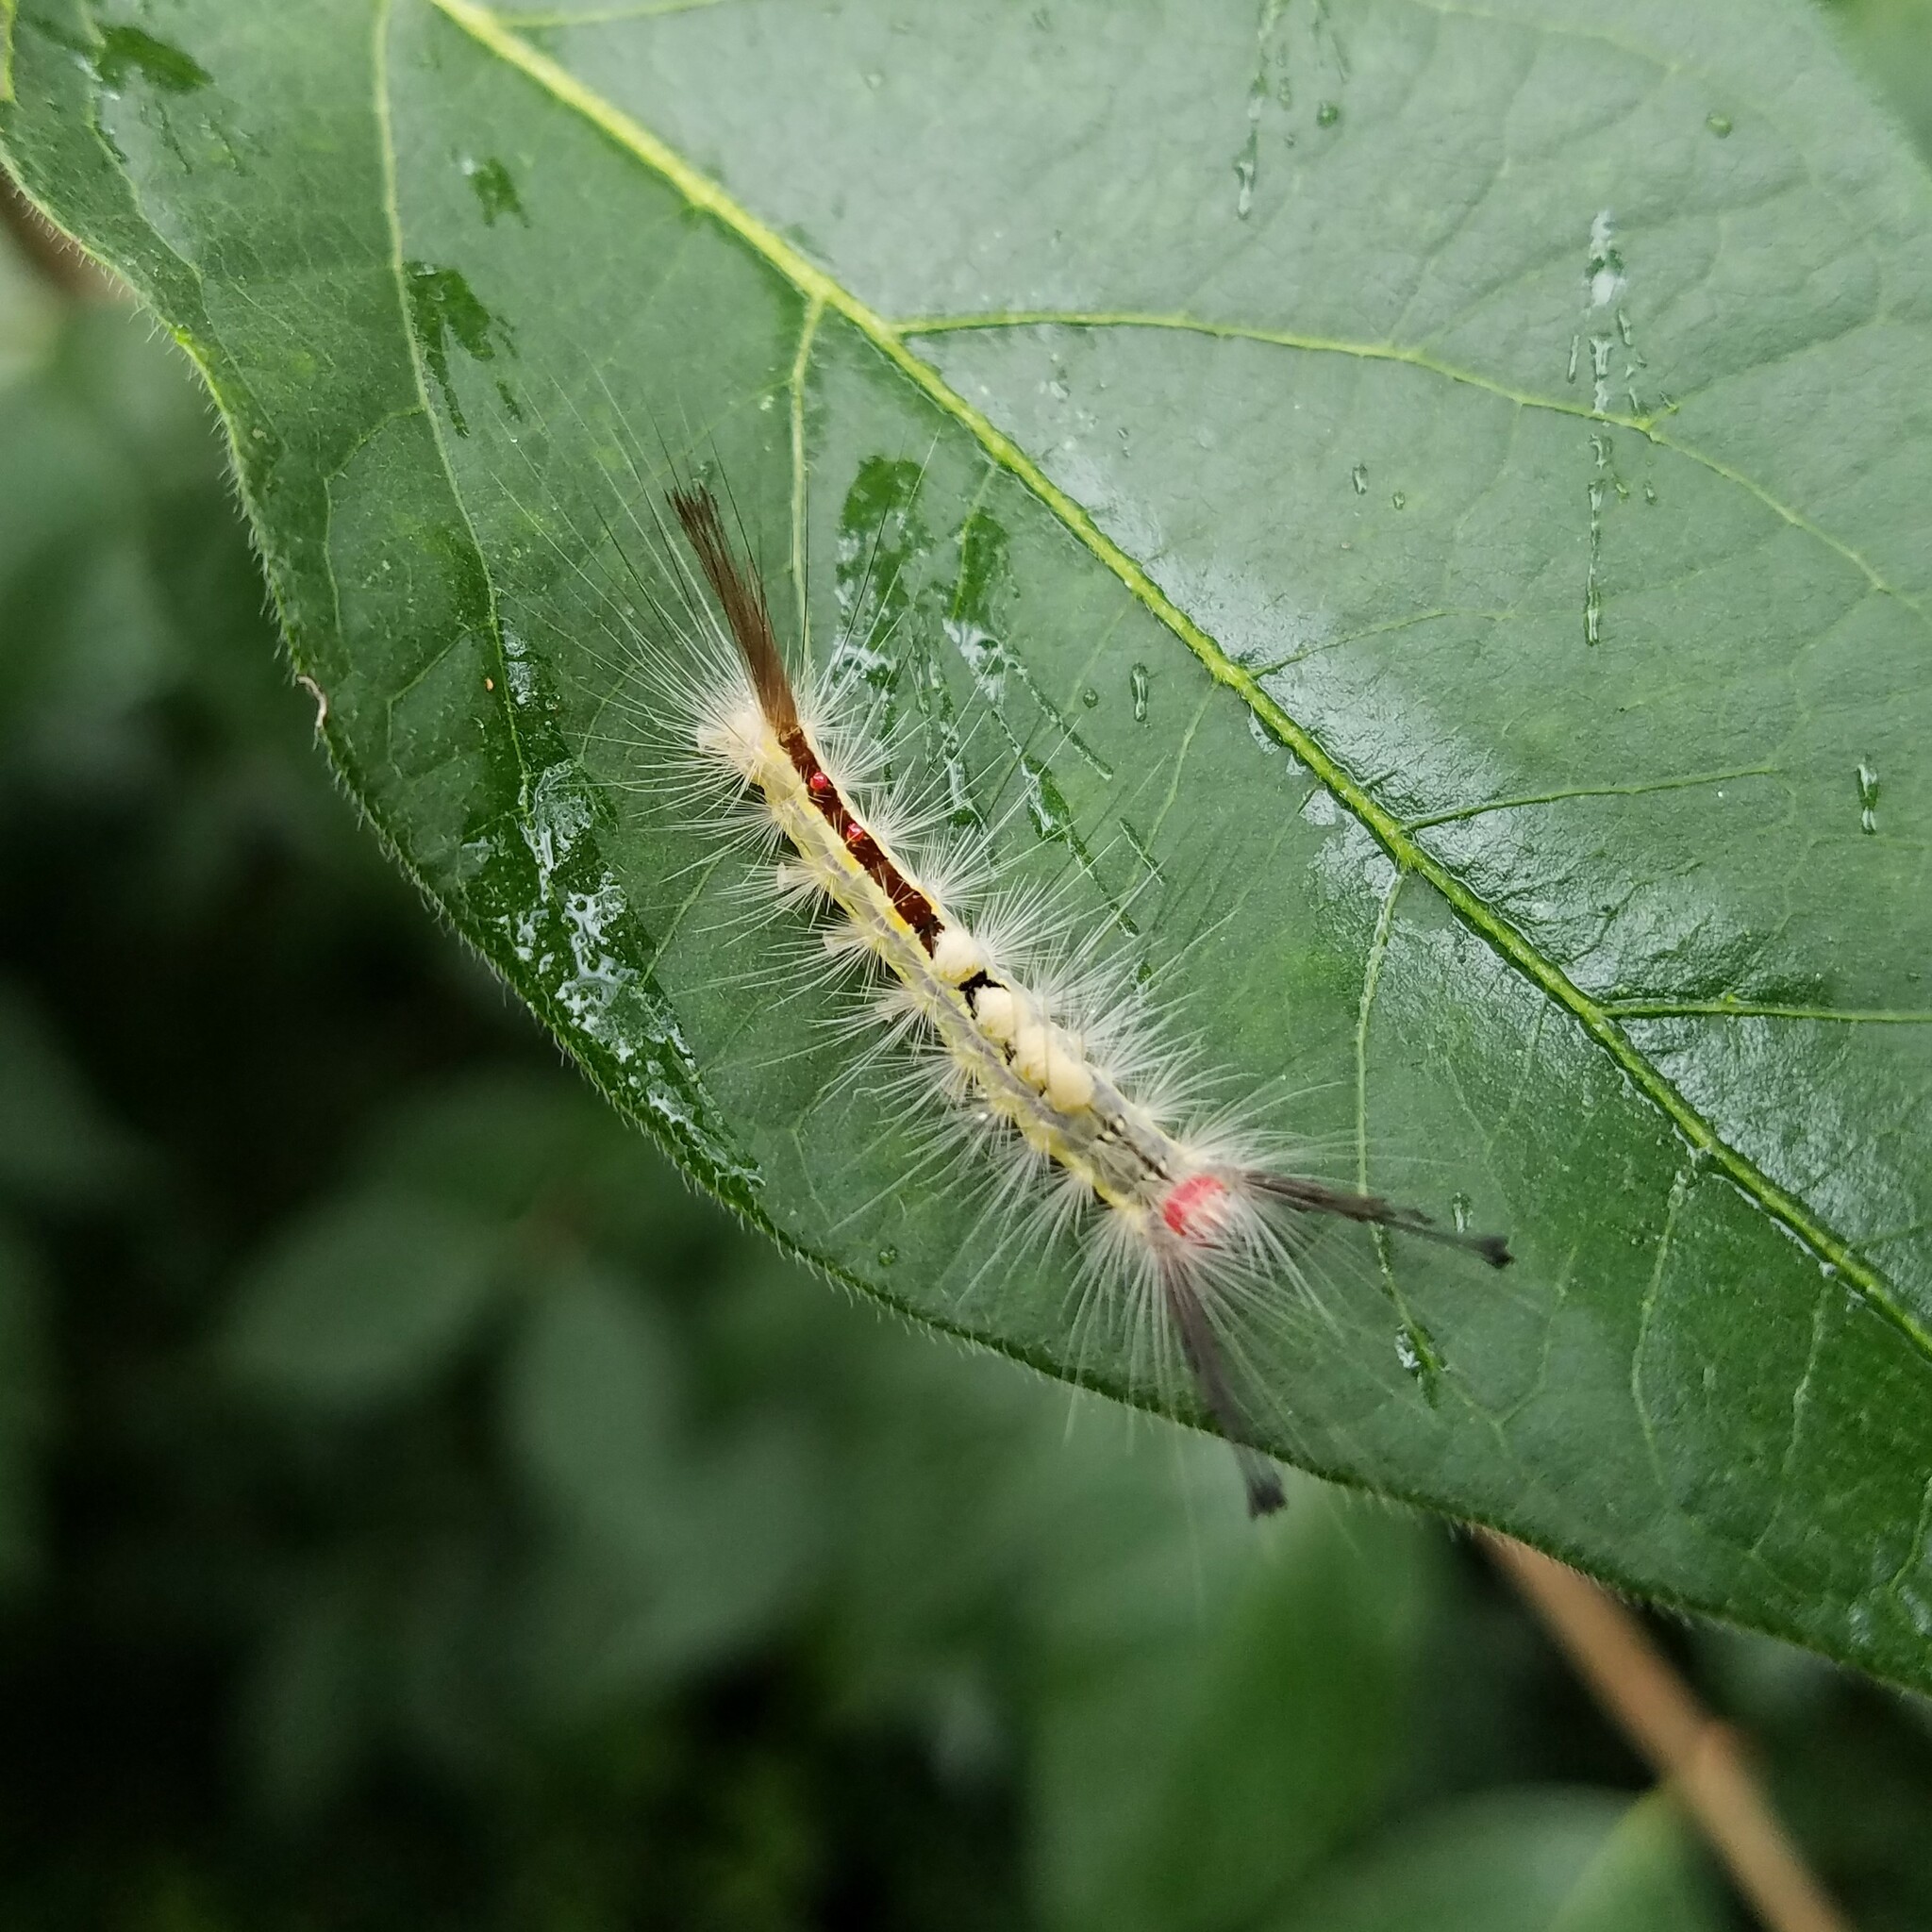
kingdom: Animalia
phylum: Arthropoda
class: Insecta
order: Lepidoptera
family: Erebidae
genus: Orgyia
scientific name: Orgyia leucostigma
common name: White-marked tussock moth
